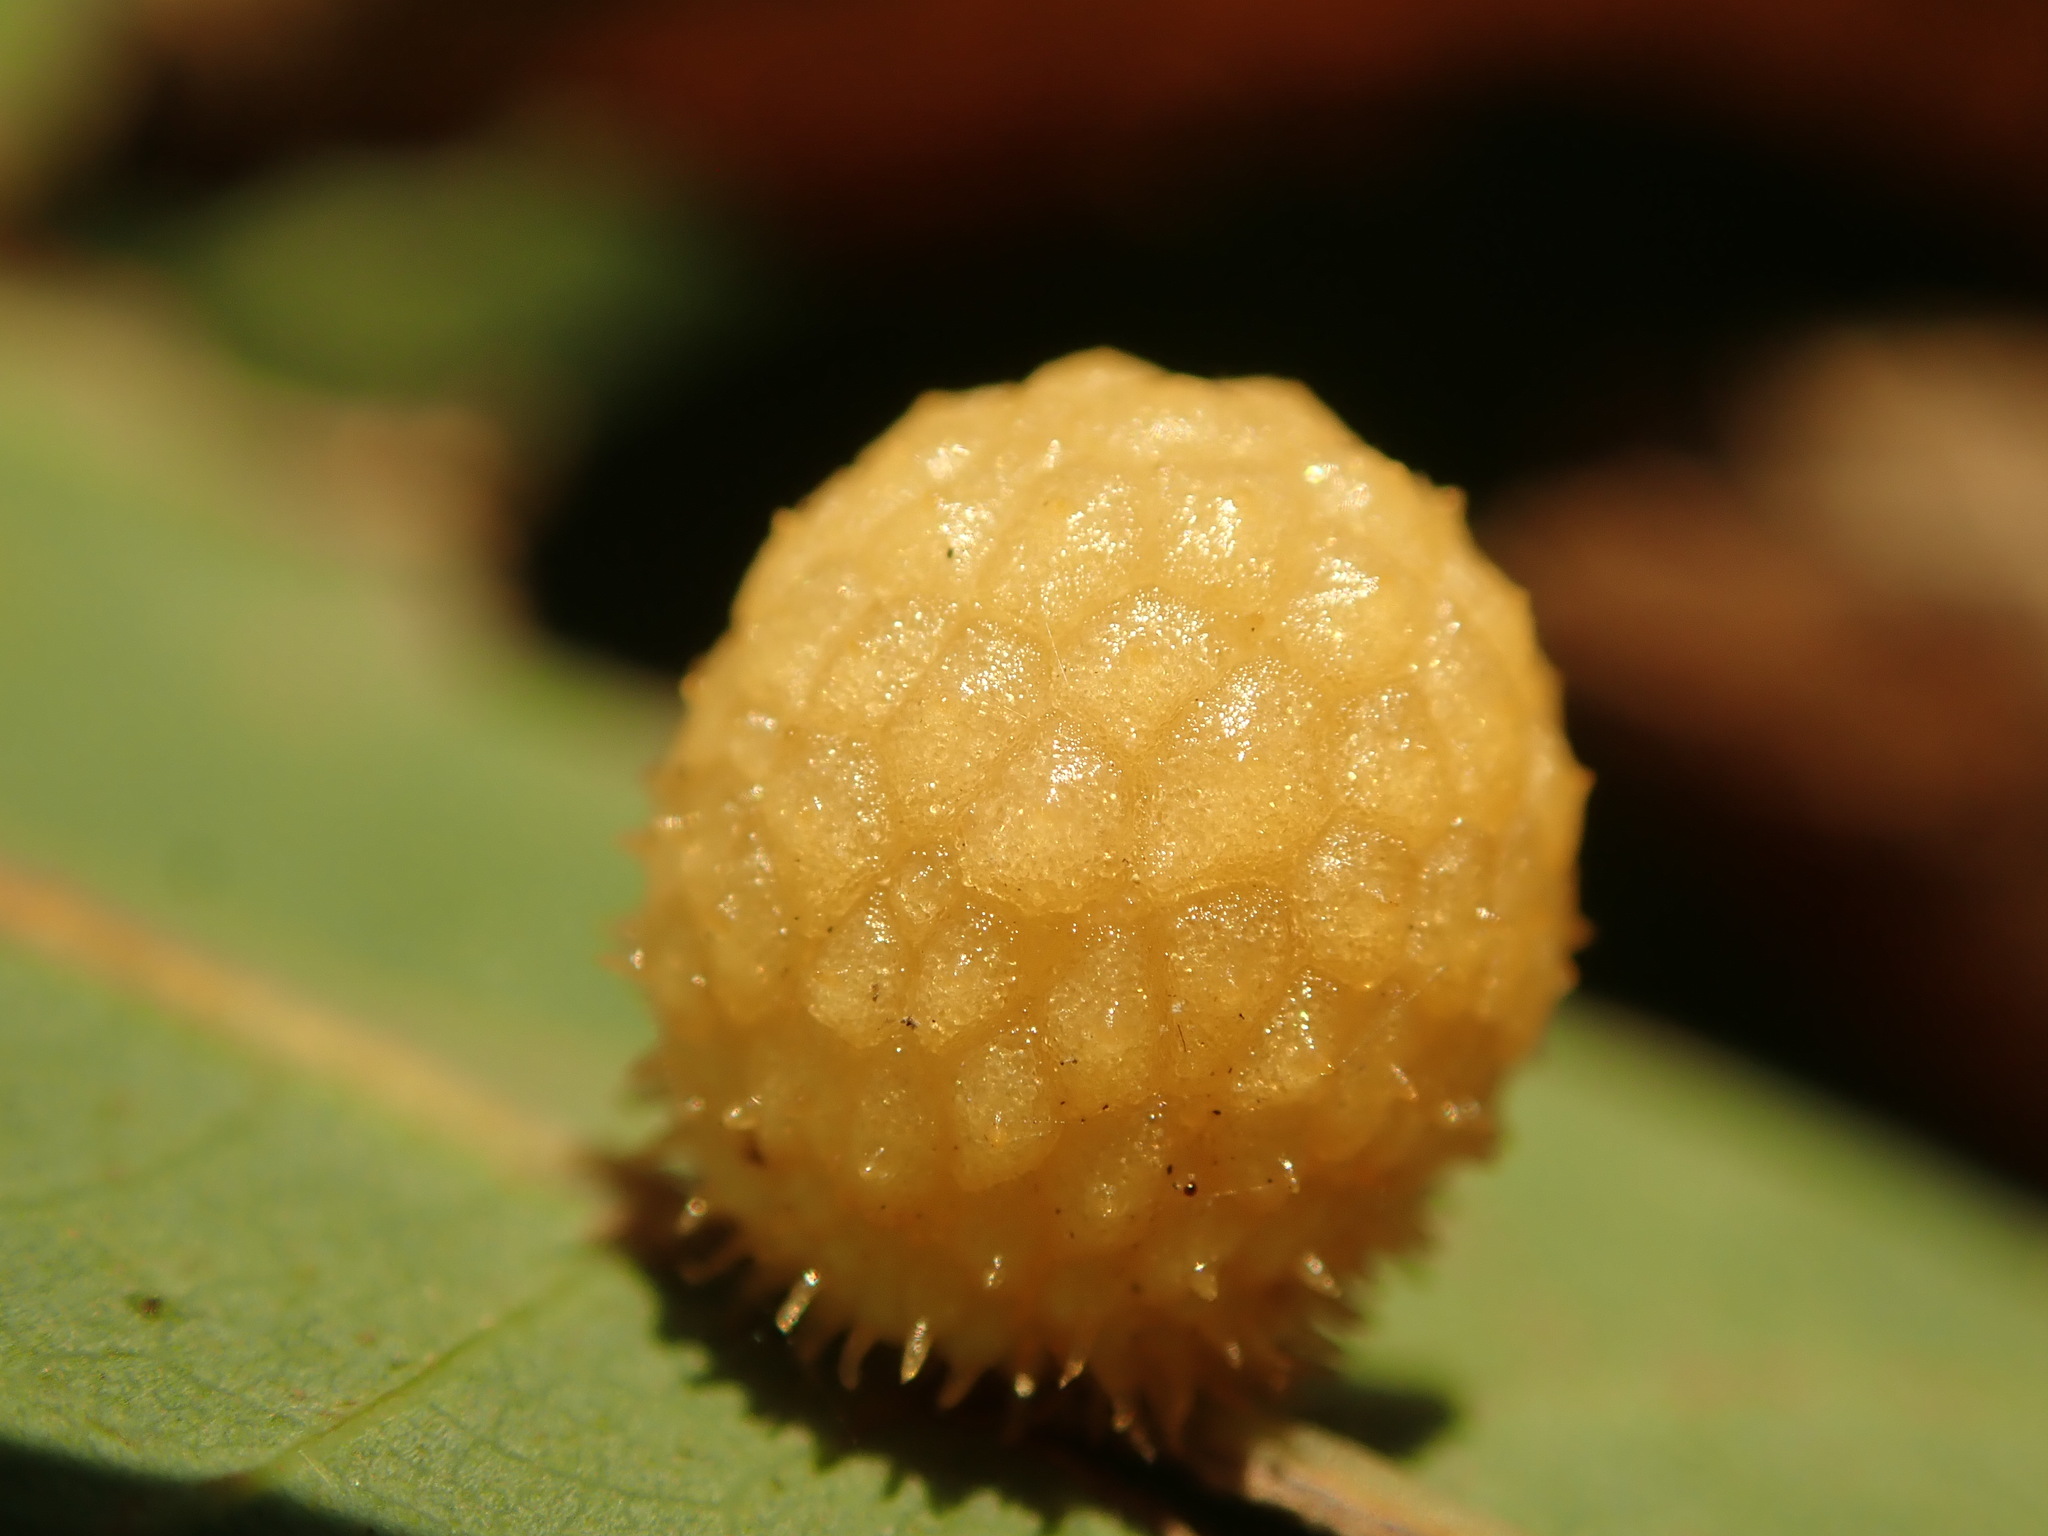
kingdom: Animalia
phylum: Arthropoda
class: Insecta
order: Hymenoptera
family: Cynipidae
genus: Acraspis
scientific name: Acraspis
